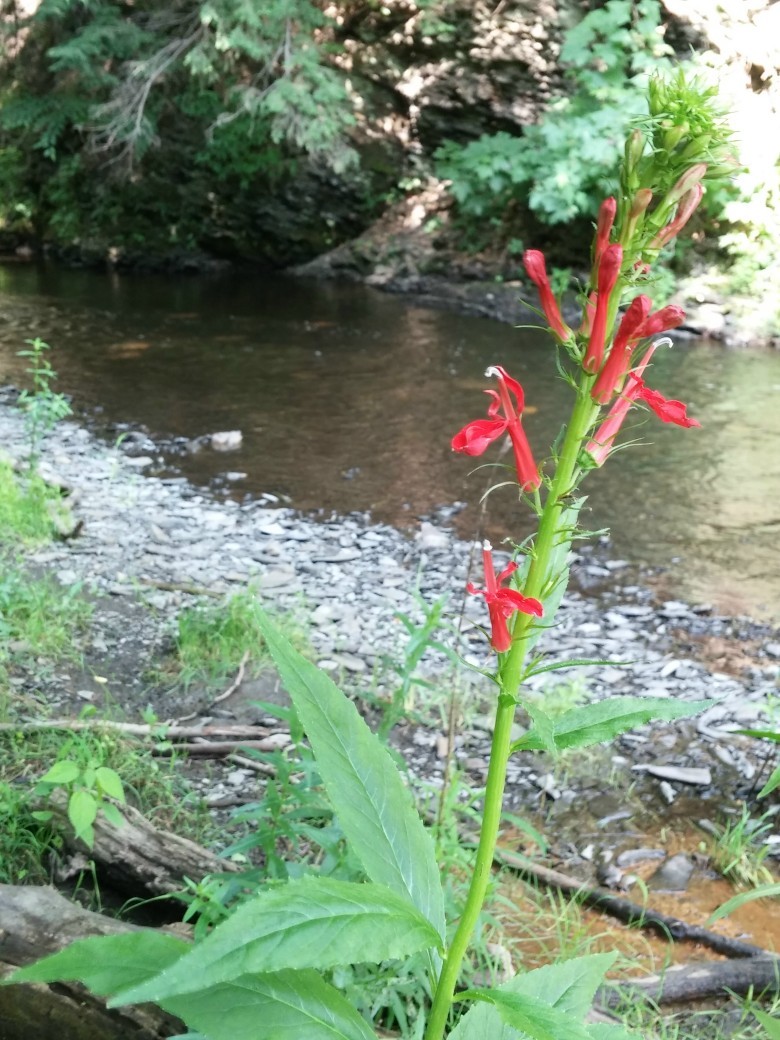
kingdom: Plantae
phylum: Tracheophyta
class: Magnoliopsida
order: Asterales
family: Campanulaceae
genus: Lobelia
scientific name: Lobelia cardinalis
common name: Cardinal flower
